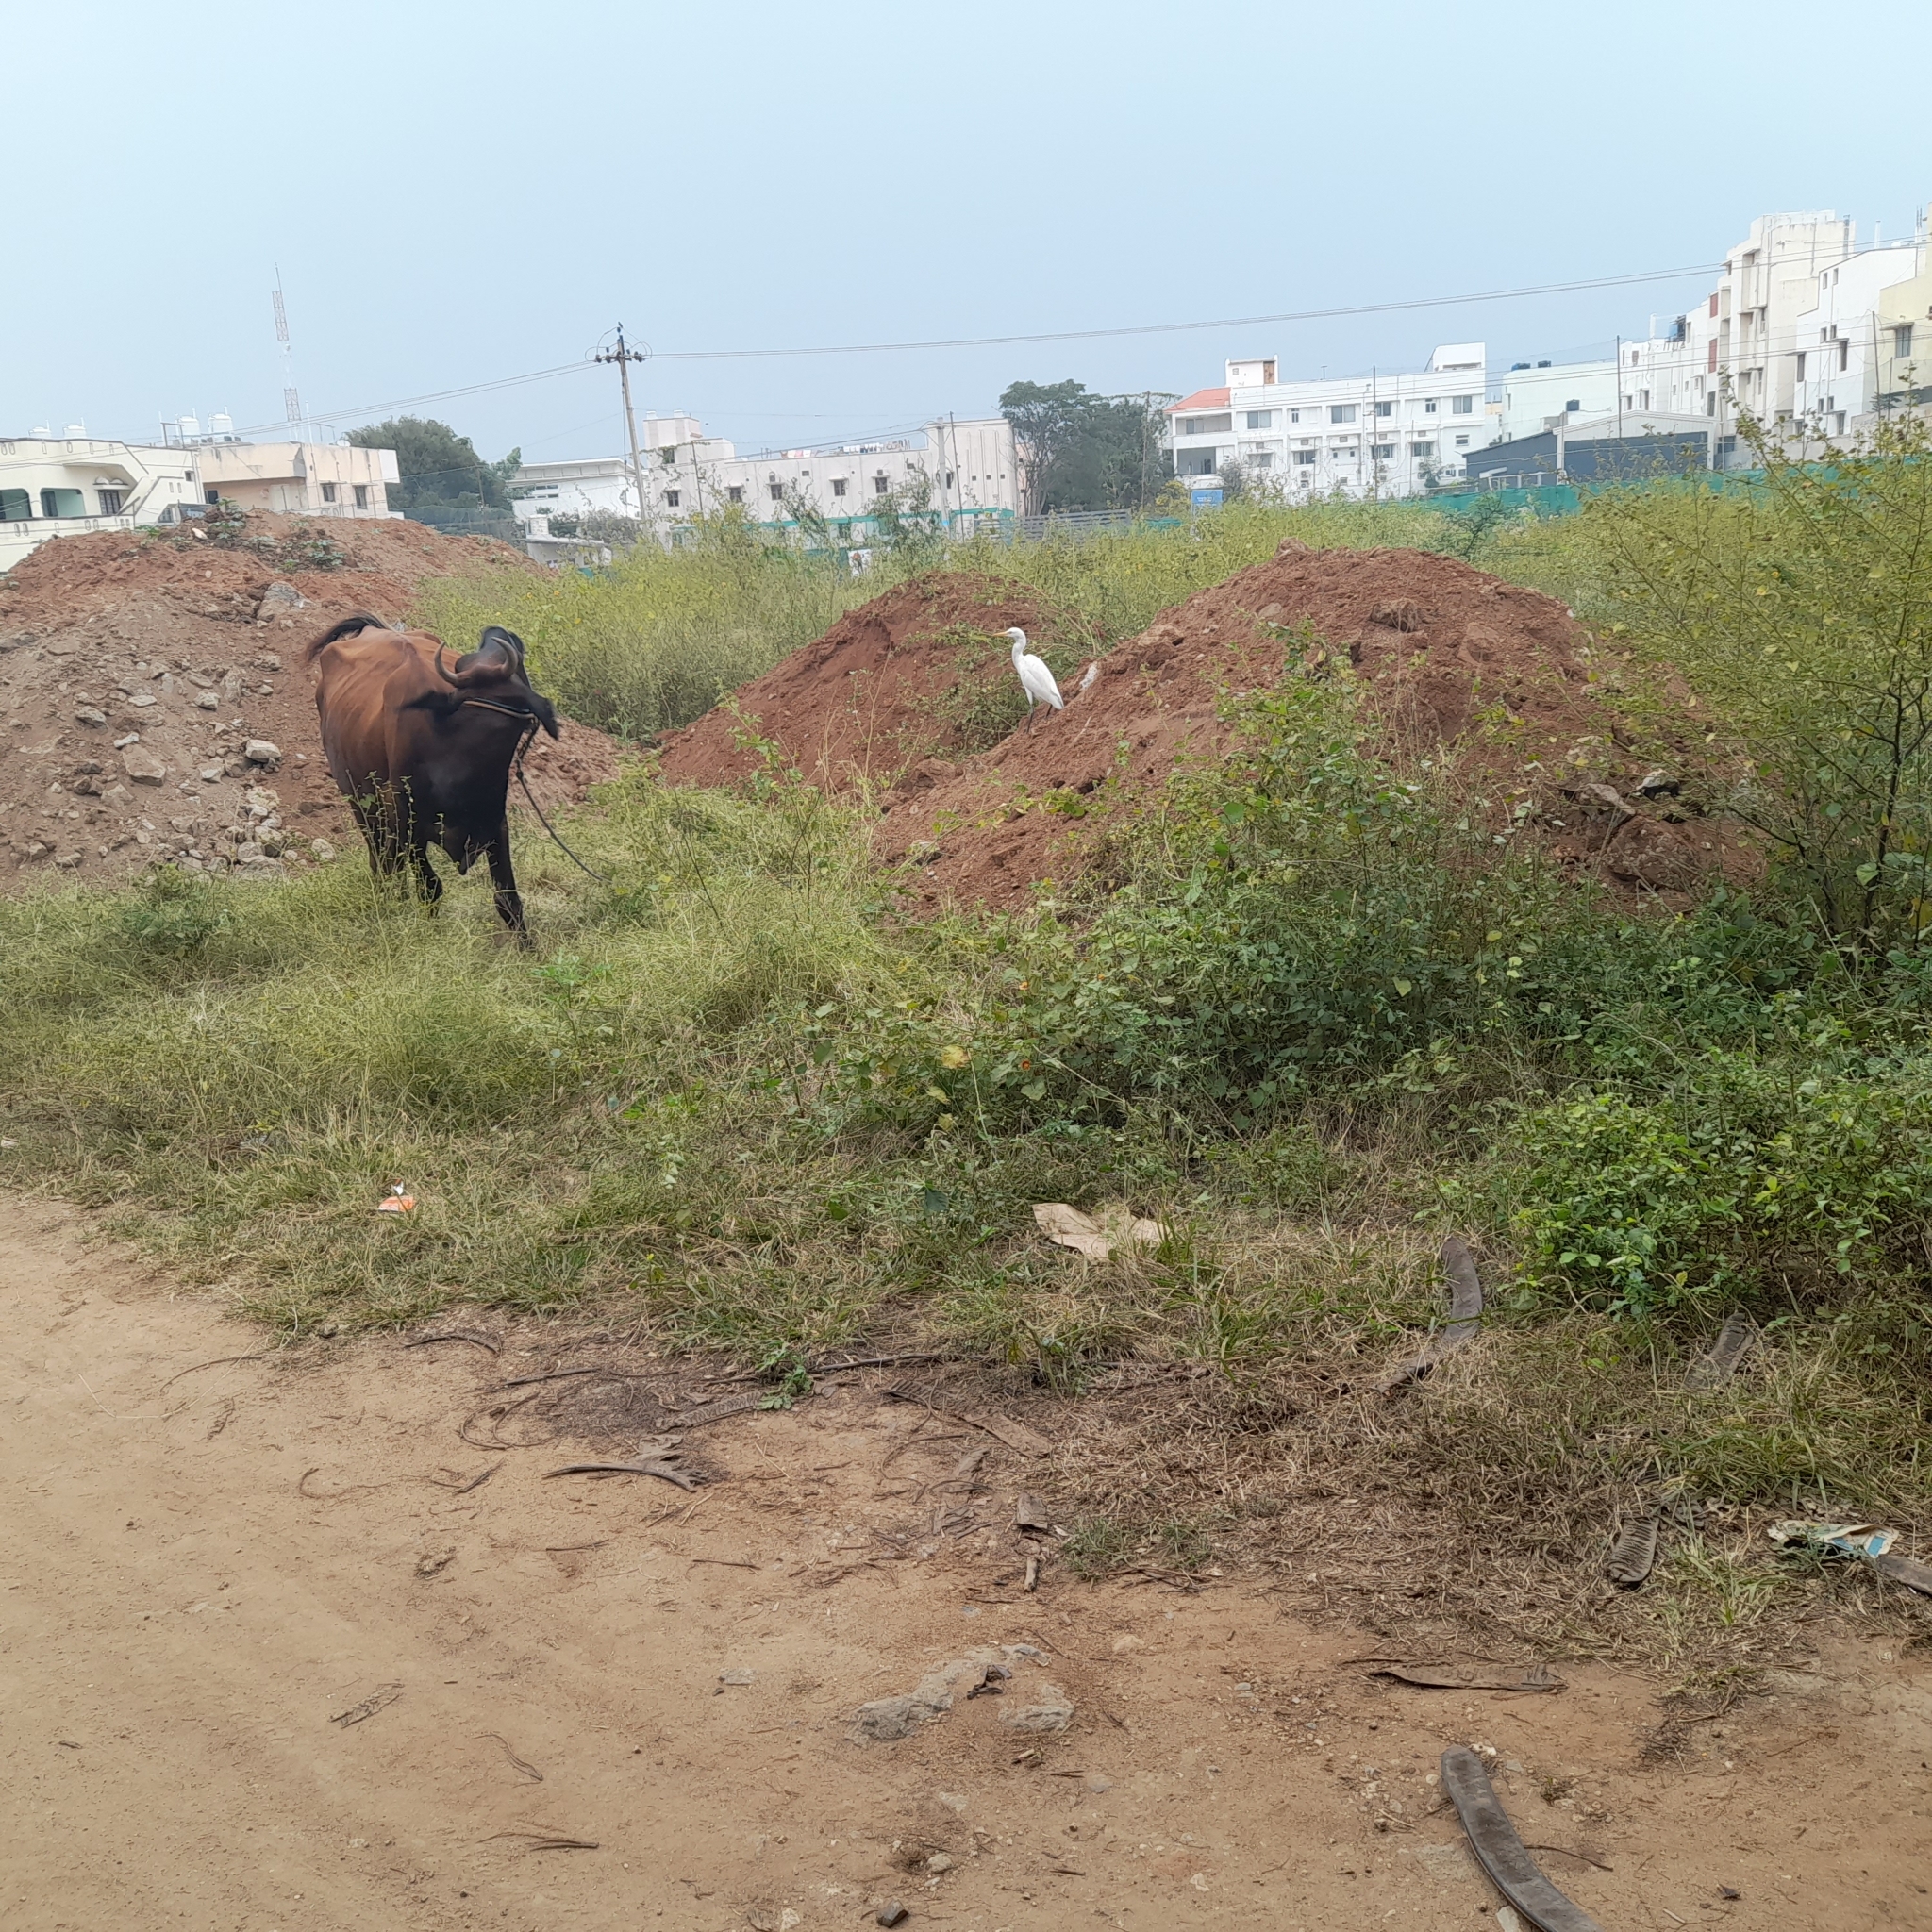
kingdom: Animalia
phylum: Chordata
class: Aves
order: Pelecaniformes
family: Ardeidae
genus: Bubulcus
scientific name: Bubulcus coromandus
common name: Eastern cattle egret
